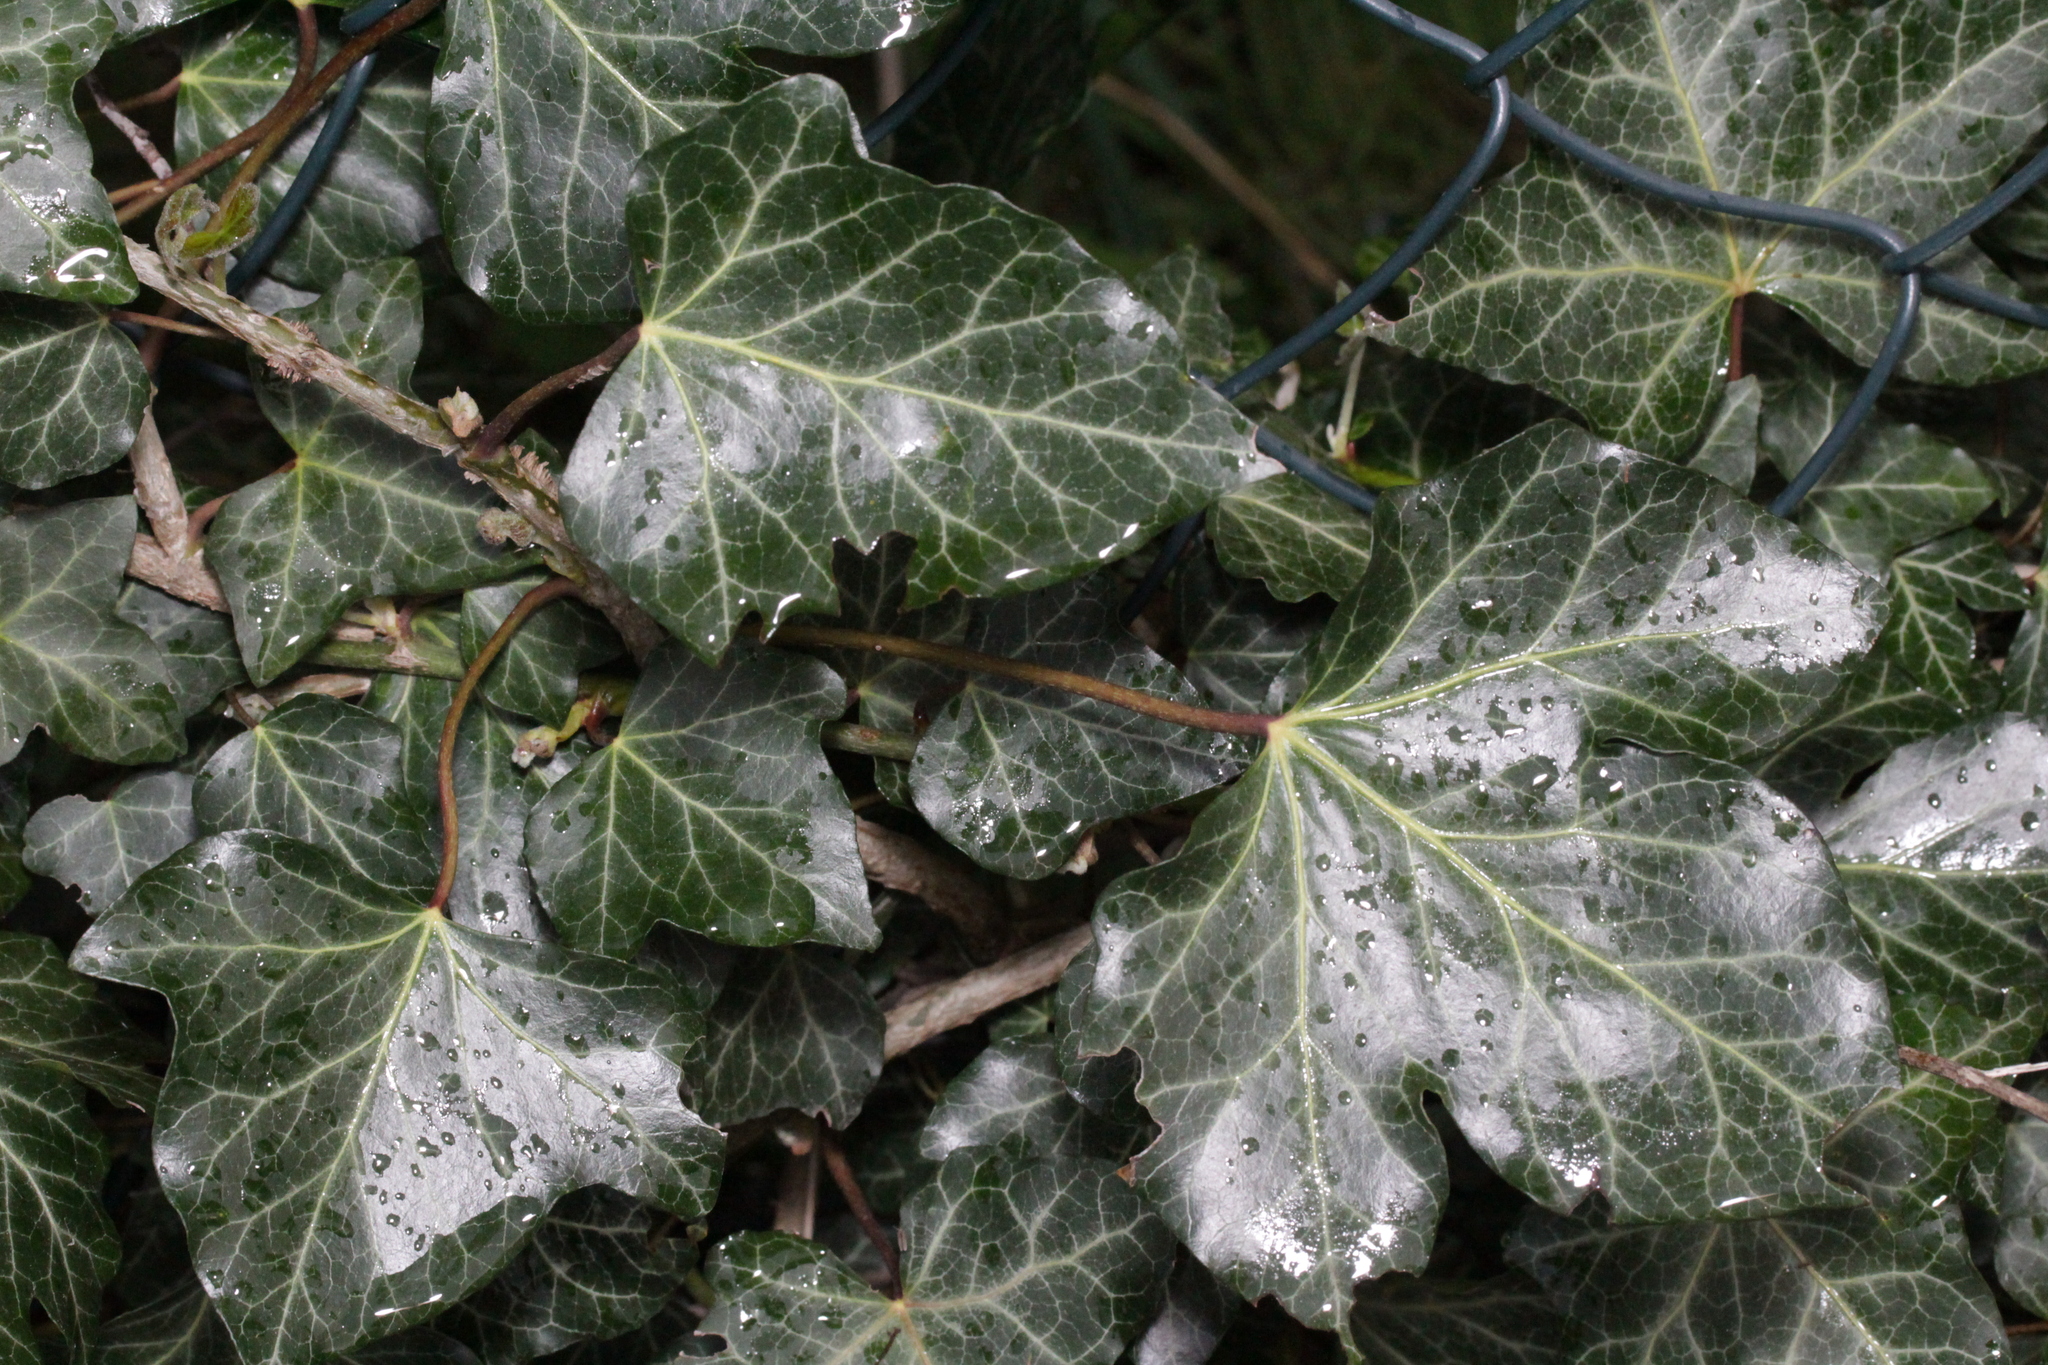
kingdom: Plantae
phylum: Tracheophyta
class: Magnoliopsida
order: Apiales
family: Araliaceae
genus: Hedera
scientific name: Hedera helix
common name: Ivy
